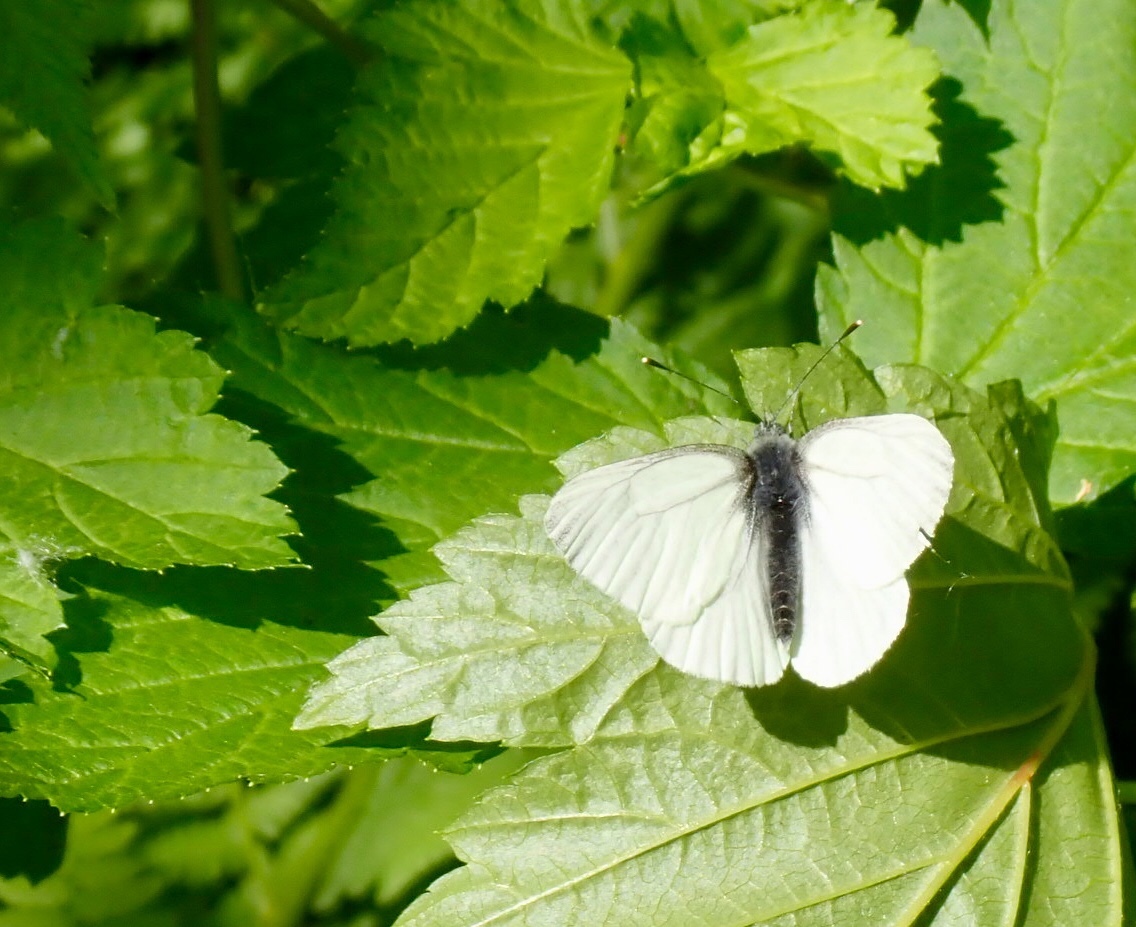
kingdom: Animalia
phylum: Arthropoda
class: Insecta
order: Lepidoptera
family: Pieridae
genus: Pieris
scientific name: Pieris marginalis
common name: Margined white
